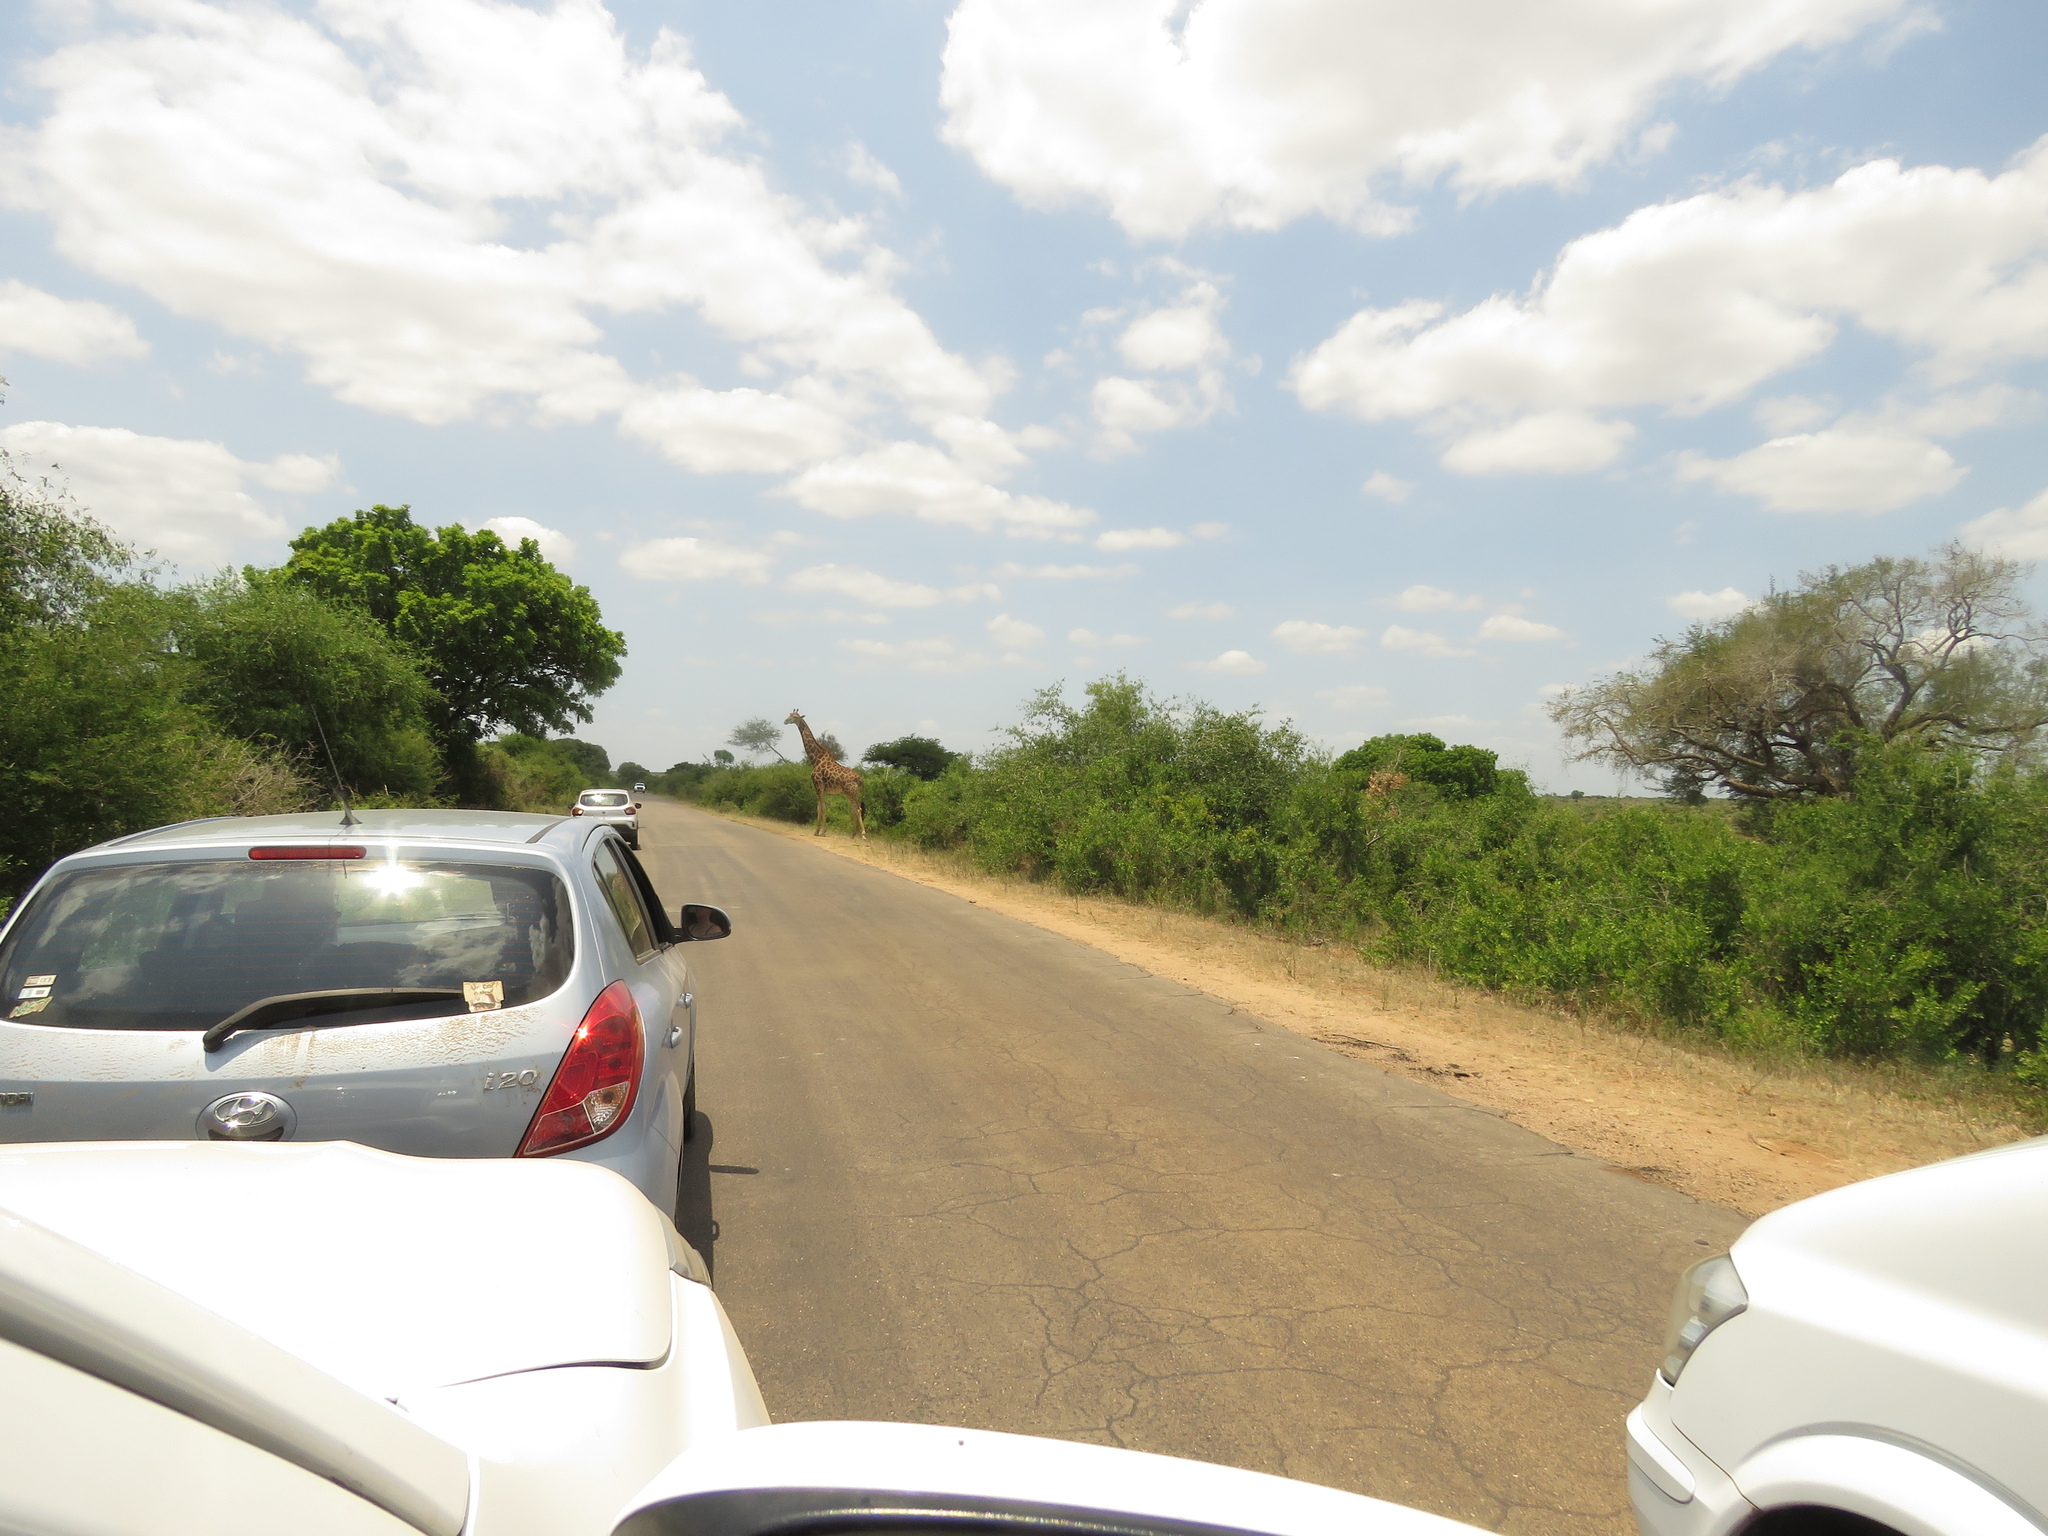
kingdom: Animalia
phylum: Chordata
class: Mammalia
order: Artiodactyla
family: Giraffidae
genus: Giraffa
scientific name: Giraffa giraffa
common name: Southern giraffe
